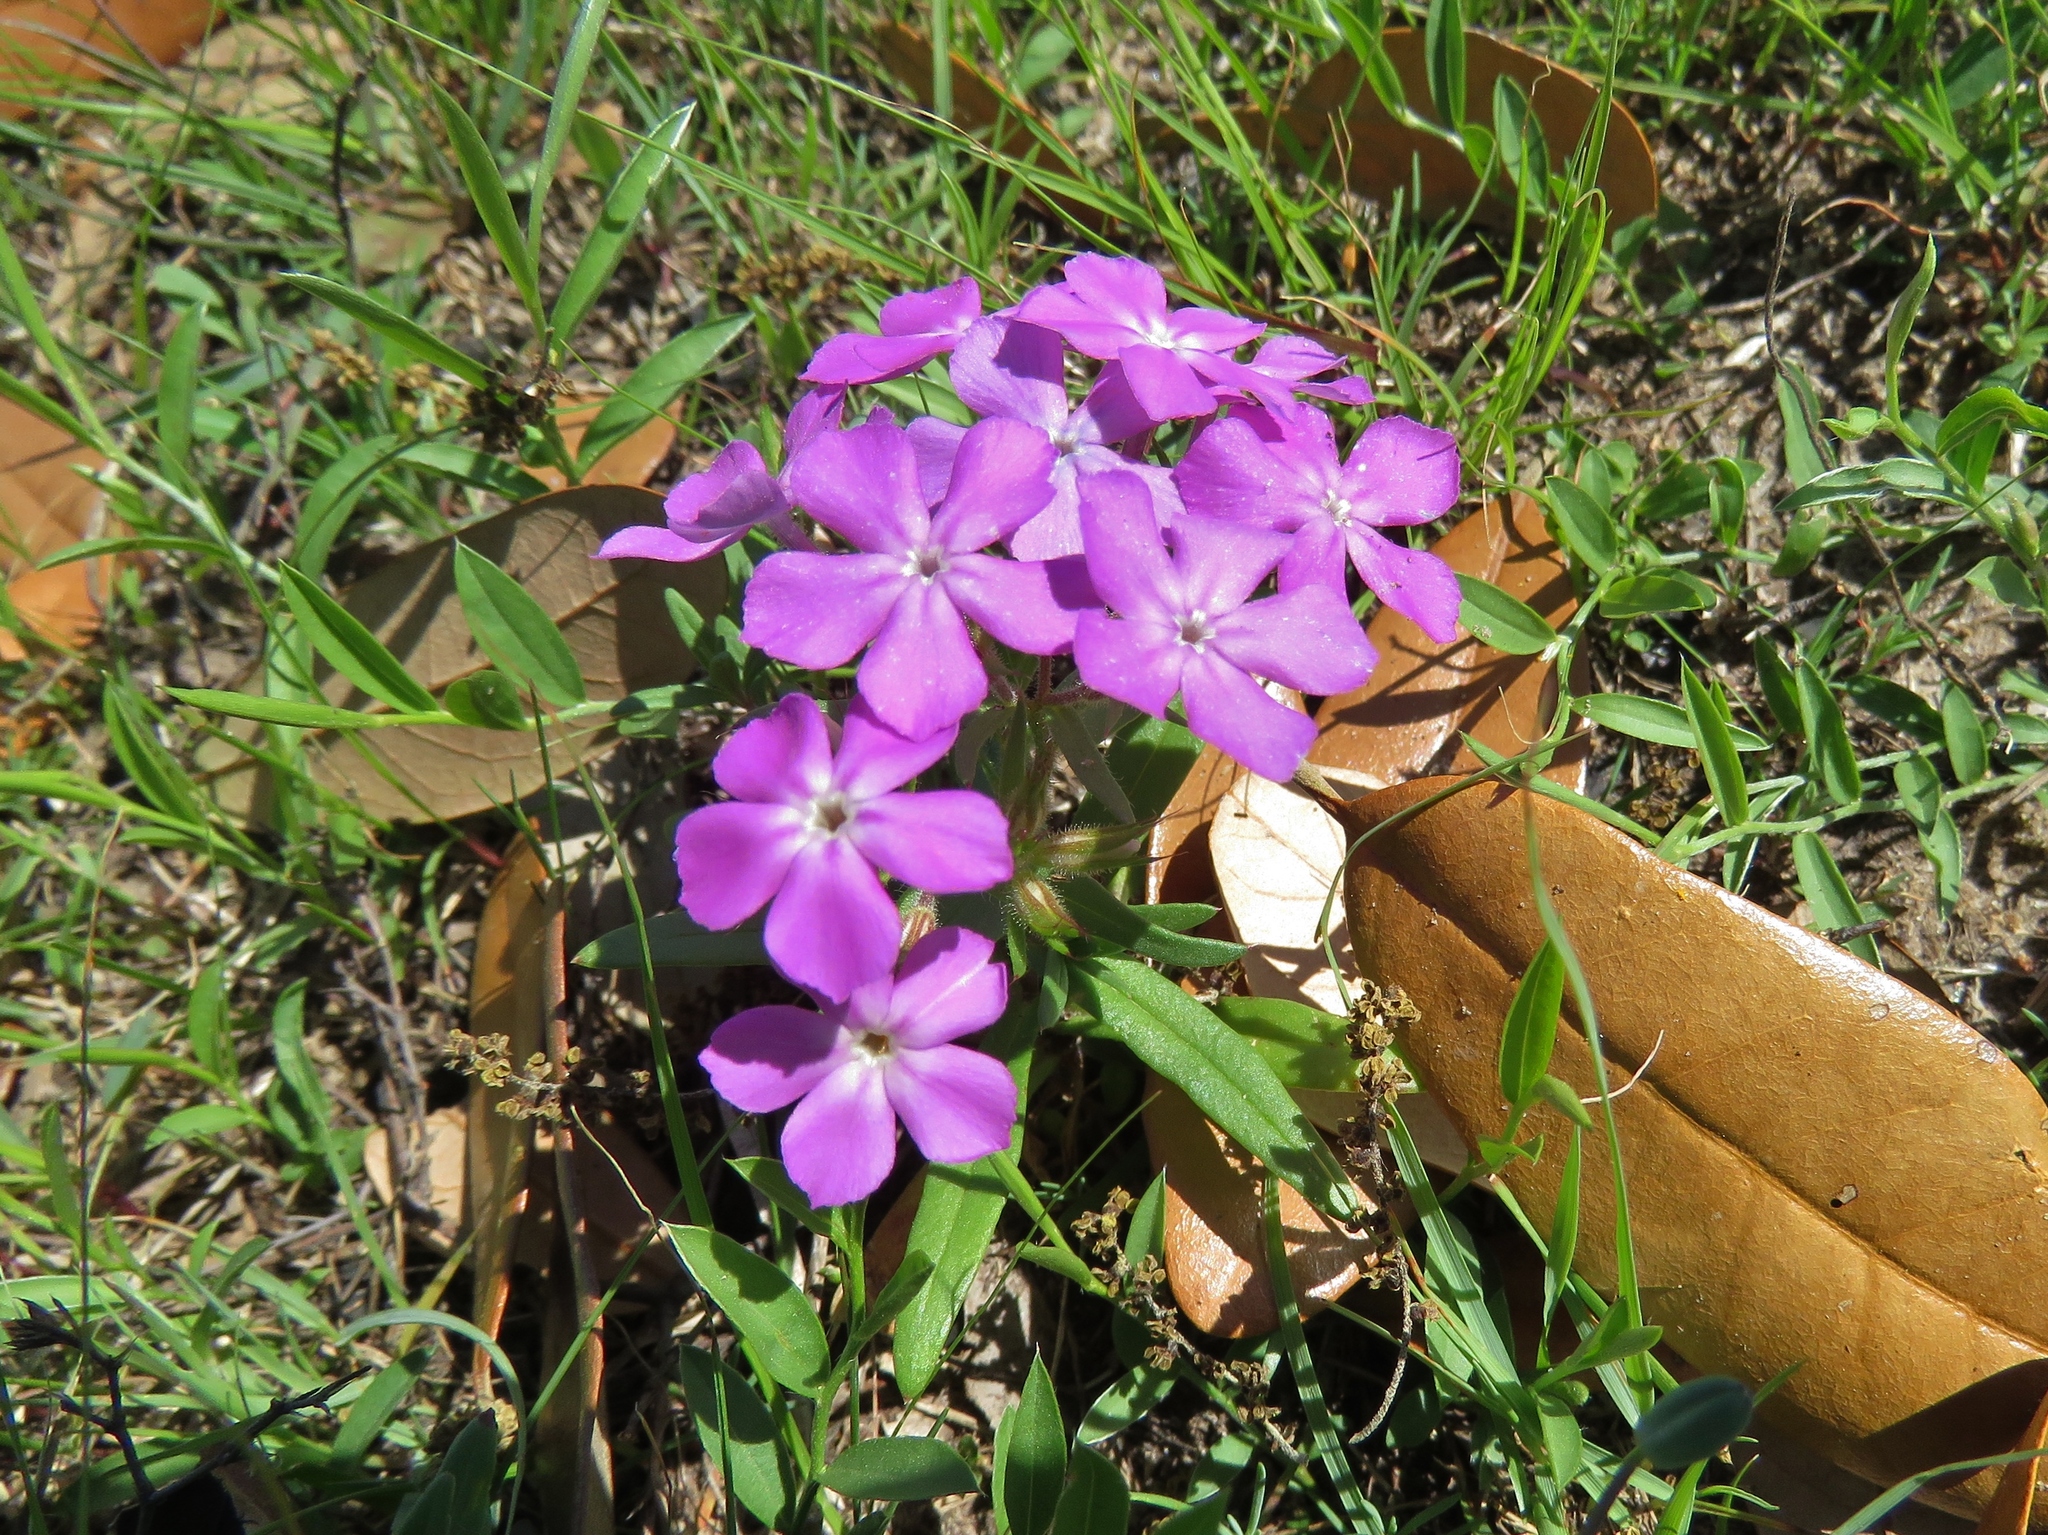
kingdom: Plantae
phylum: Tracheophyta
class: Magnoliopsida
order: Ericales
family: Polemoniaceae
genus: Phlox
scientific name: Phlox pilosa
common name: Prairie phlox
